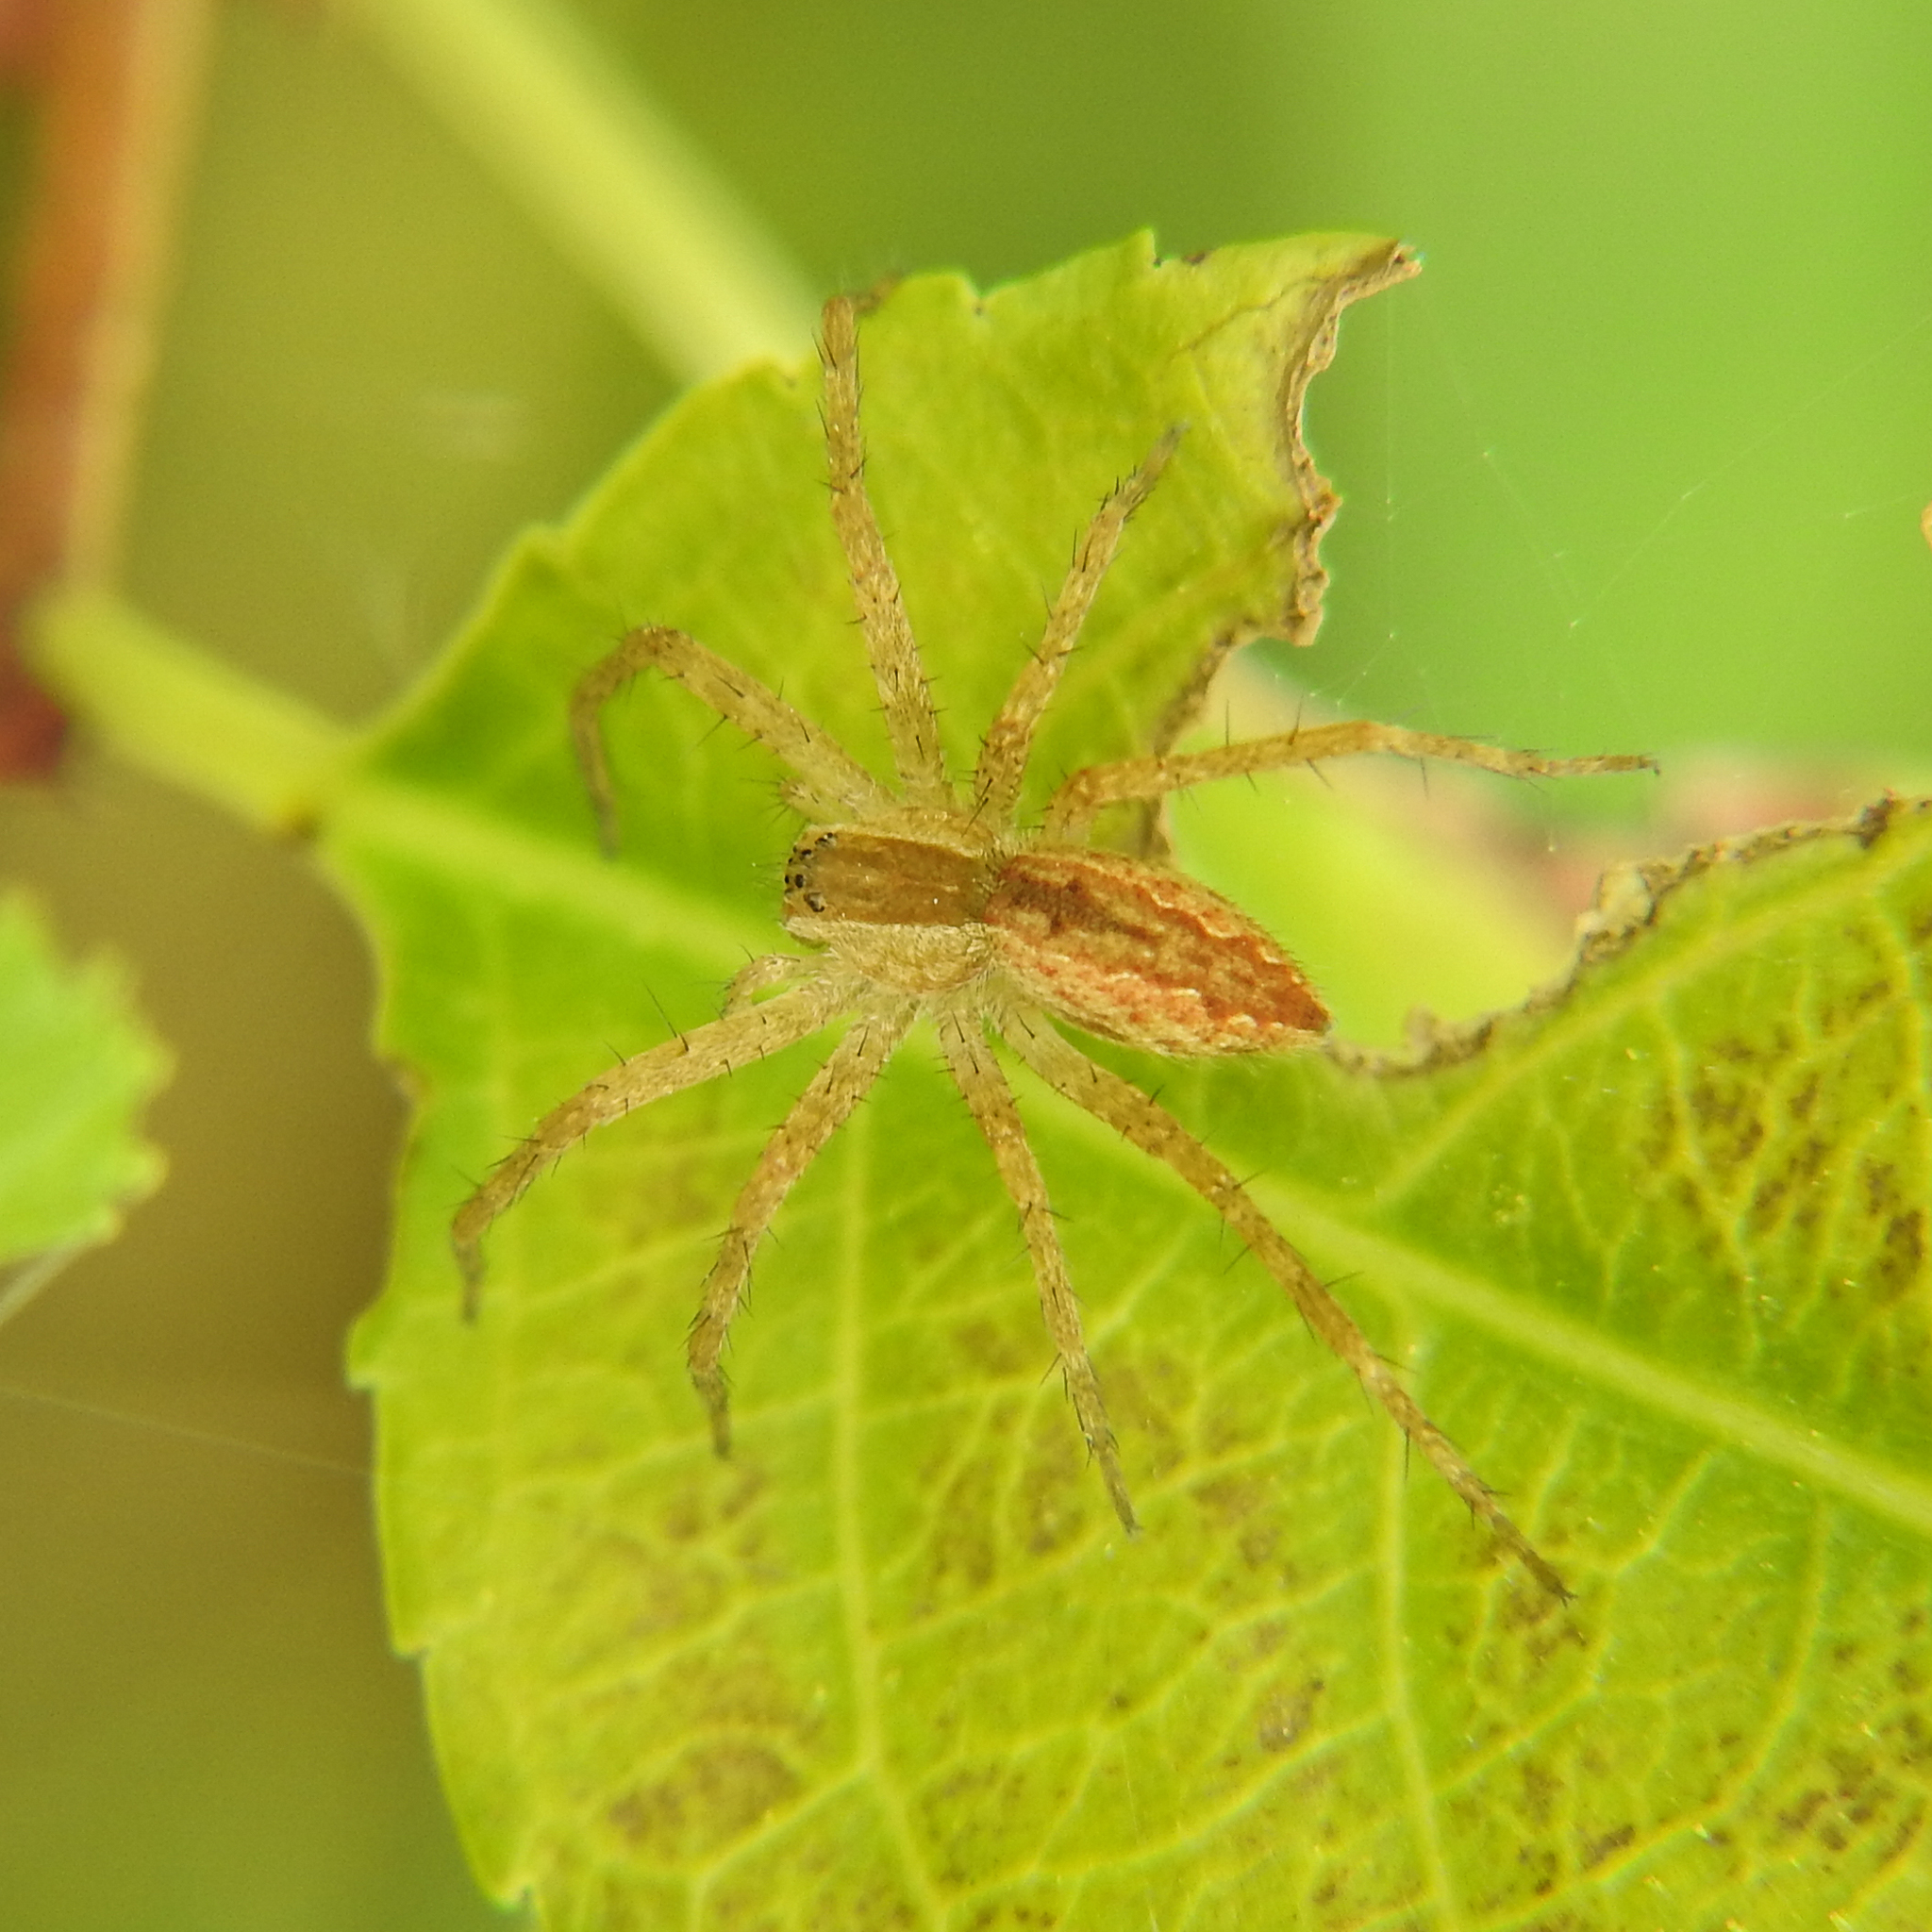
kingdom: Animalia
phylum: Arthropoda
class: Arachnida
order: Araneae
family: Pisauridae
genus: Pisaurina
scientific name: Pisaurina mira
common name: American nursery web spider
